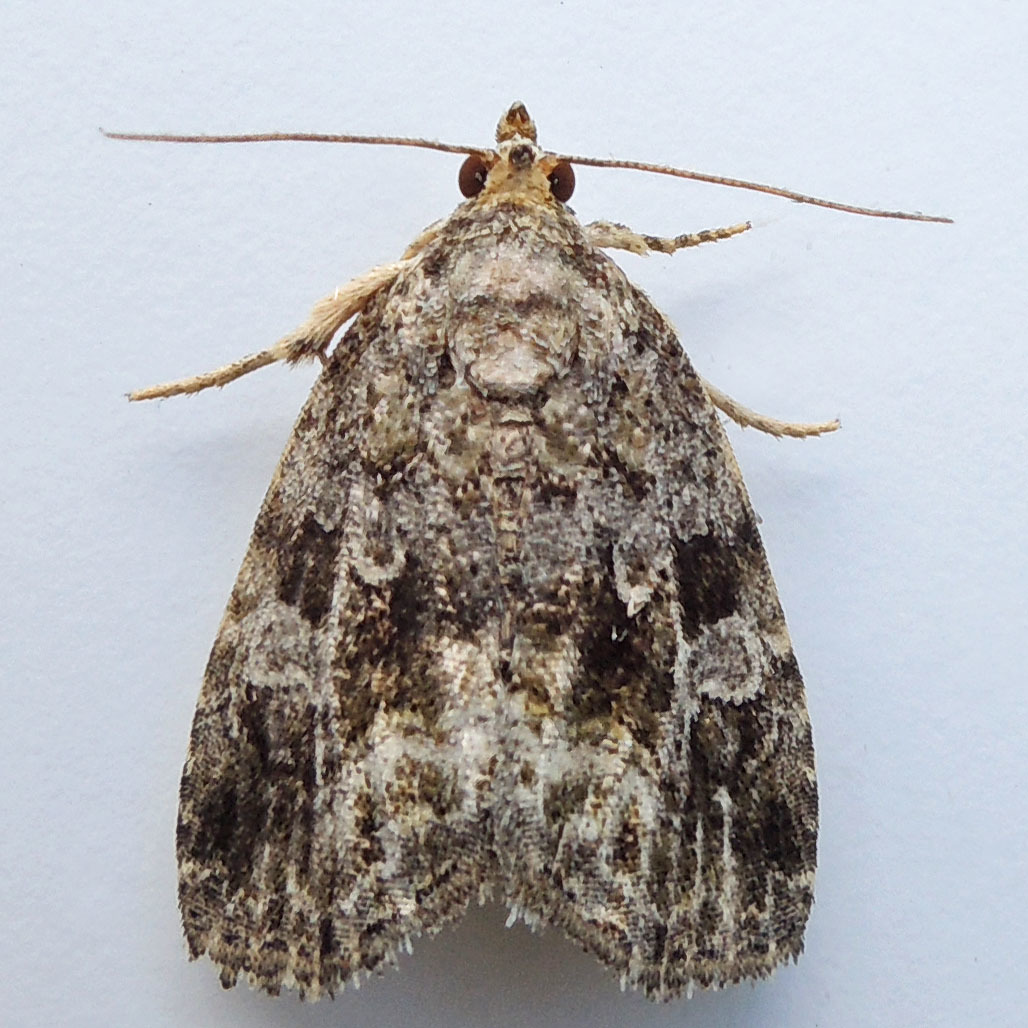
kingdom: Animalia
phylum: Arthropoda
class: Insecta
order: Lepidoptera
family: Noctuidae
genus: Protodeltote
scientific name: Protodeltote muscosula
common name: Large mossy glyph
